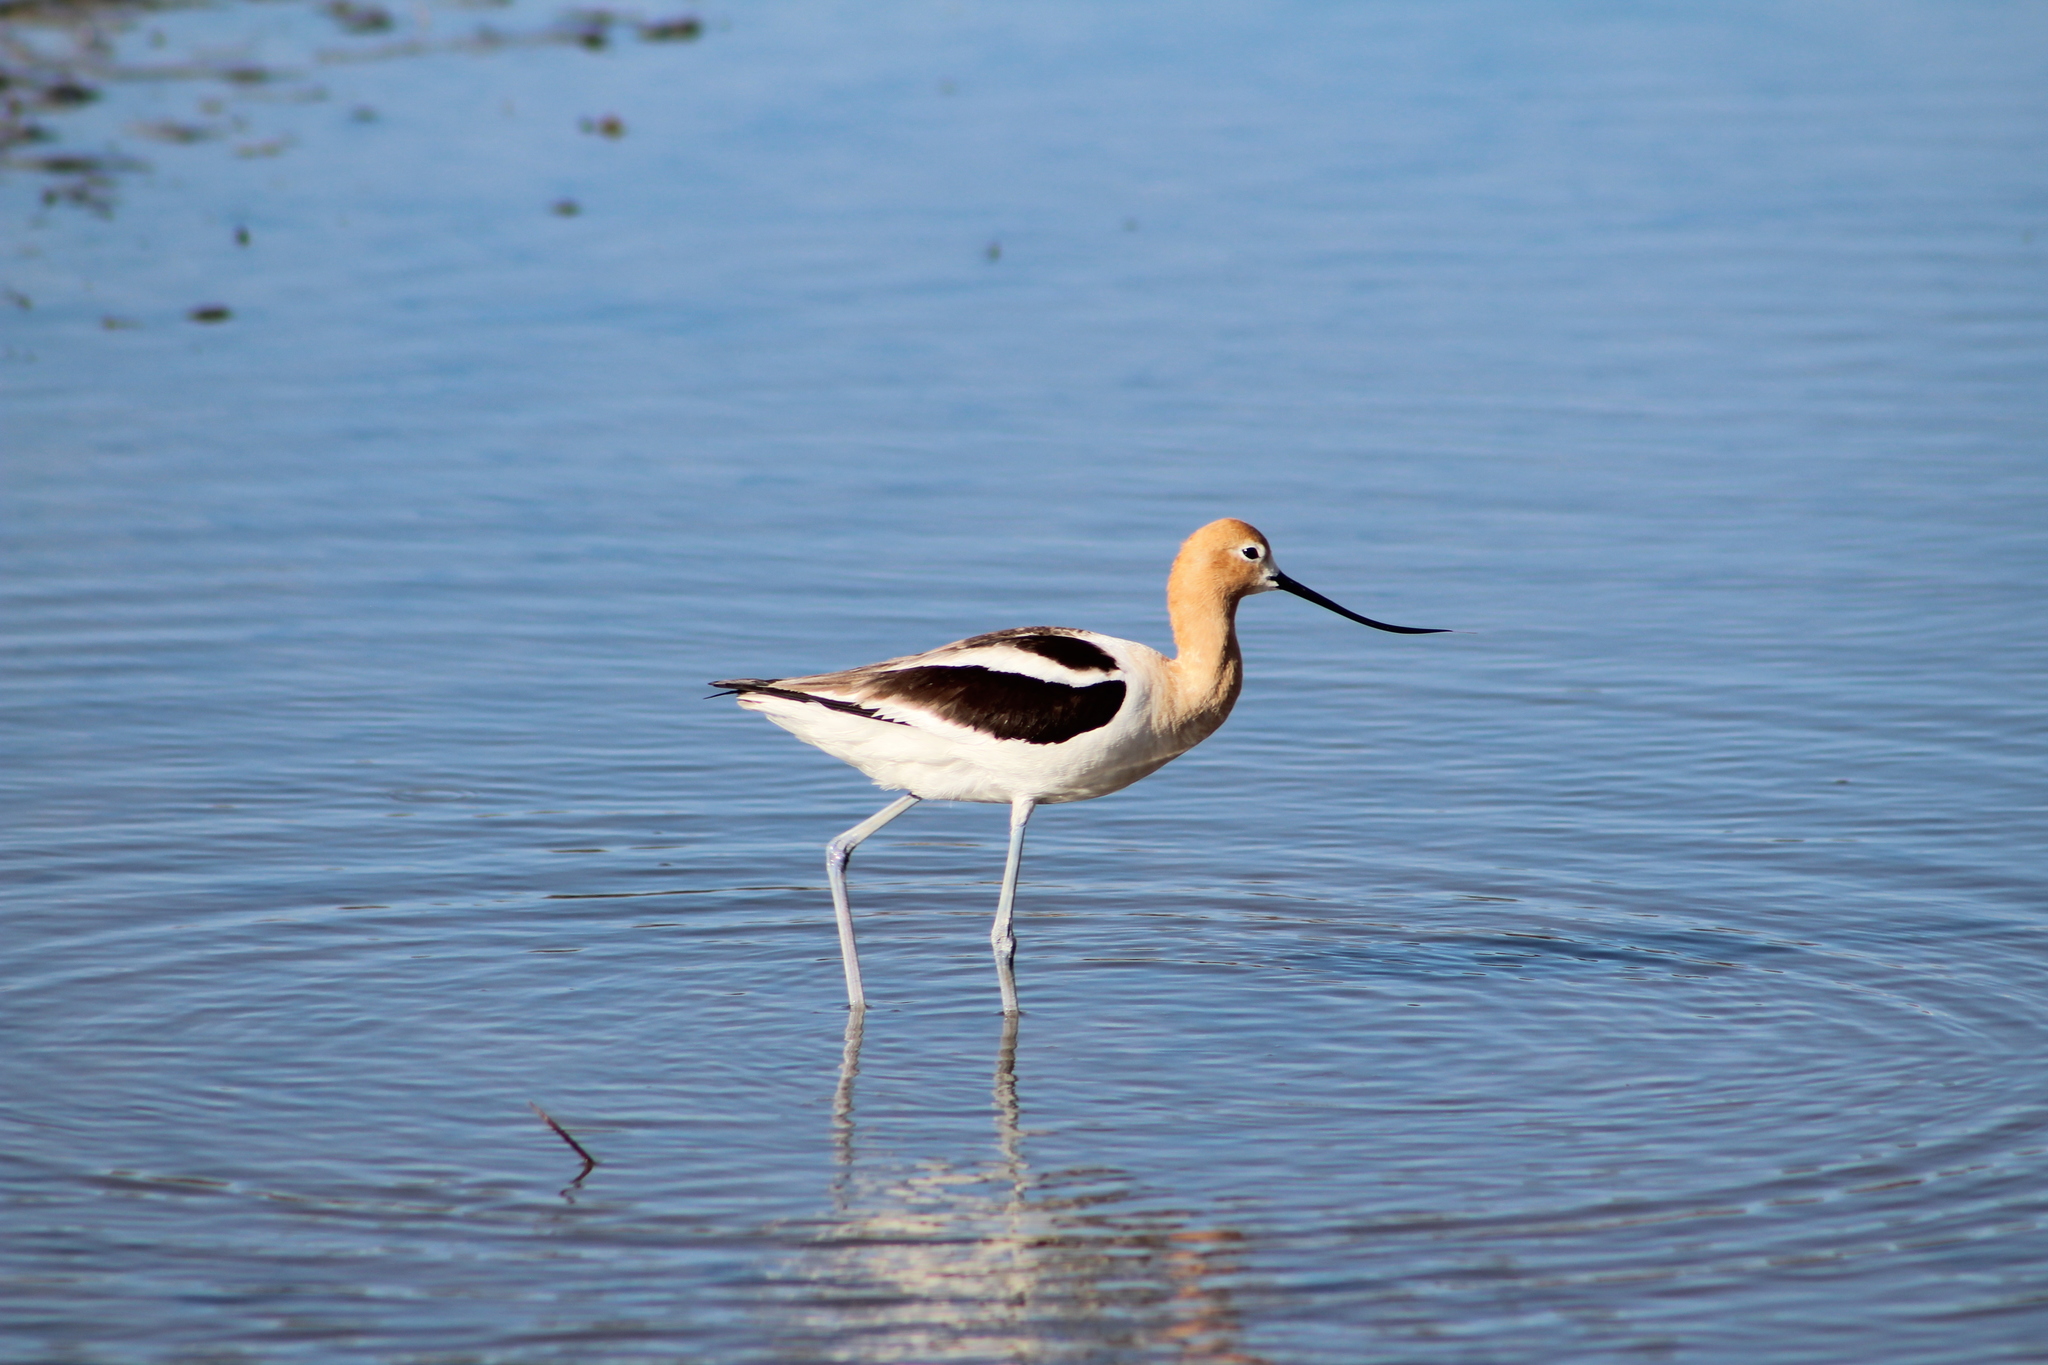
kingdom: Animalia
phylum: Chordata
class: Aves
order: Charadriiformes
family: Recurvirostridae
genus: Recurvirostra
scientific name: Recurvirostra americana
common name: American avocet
